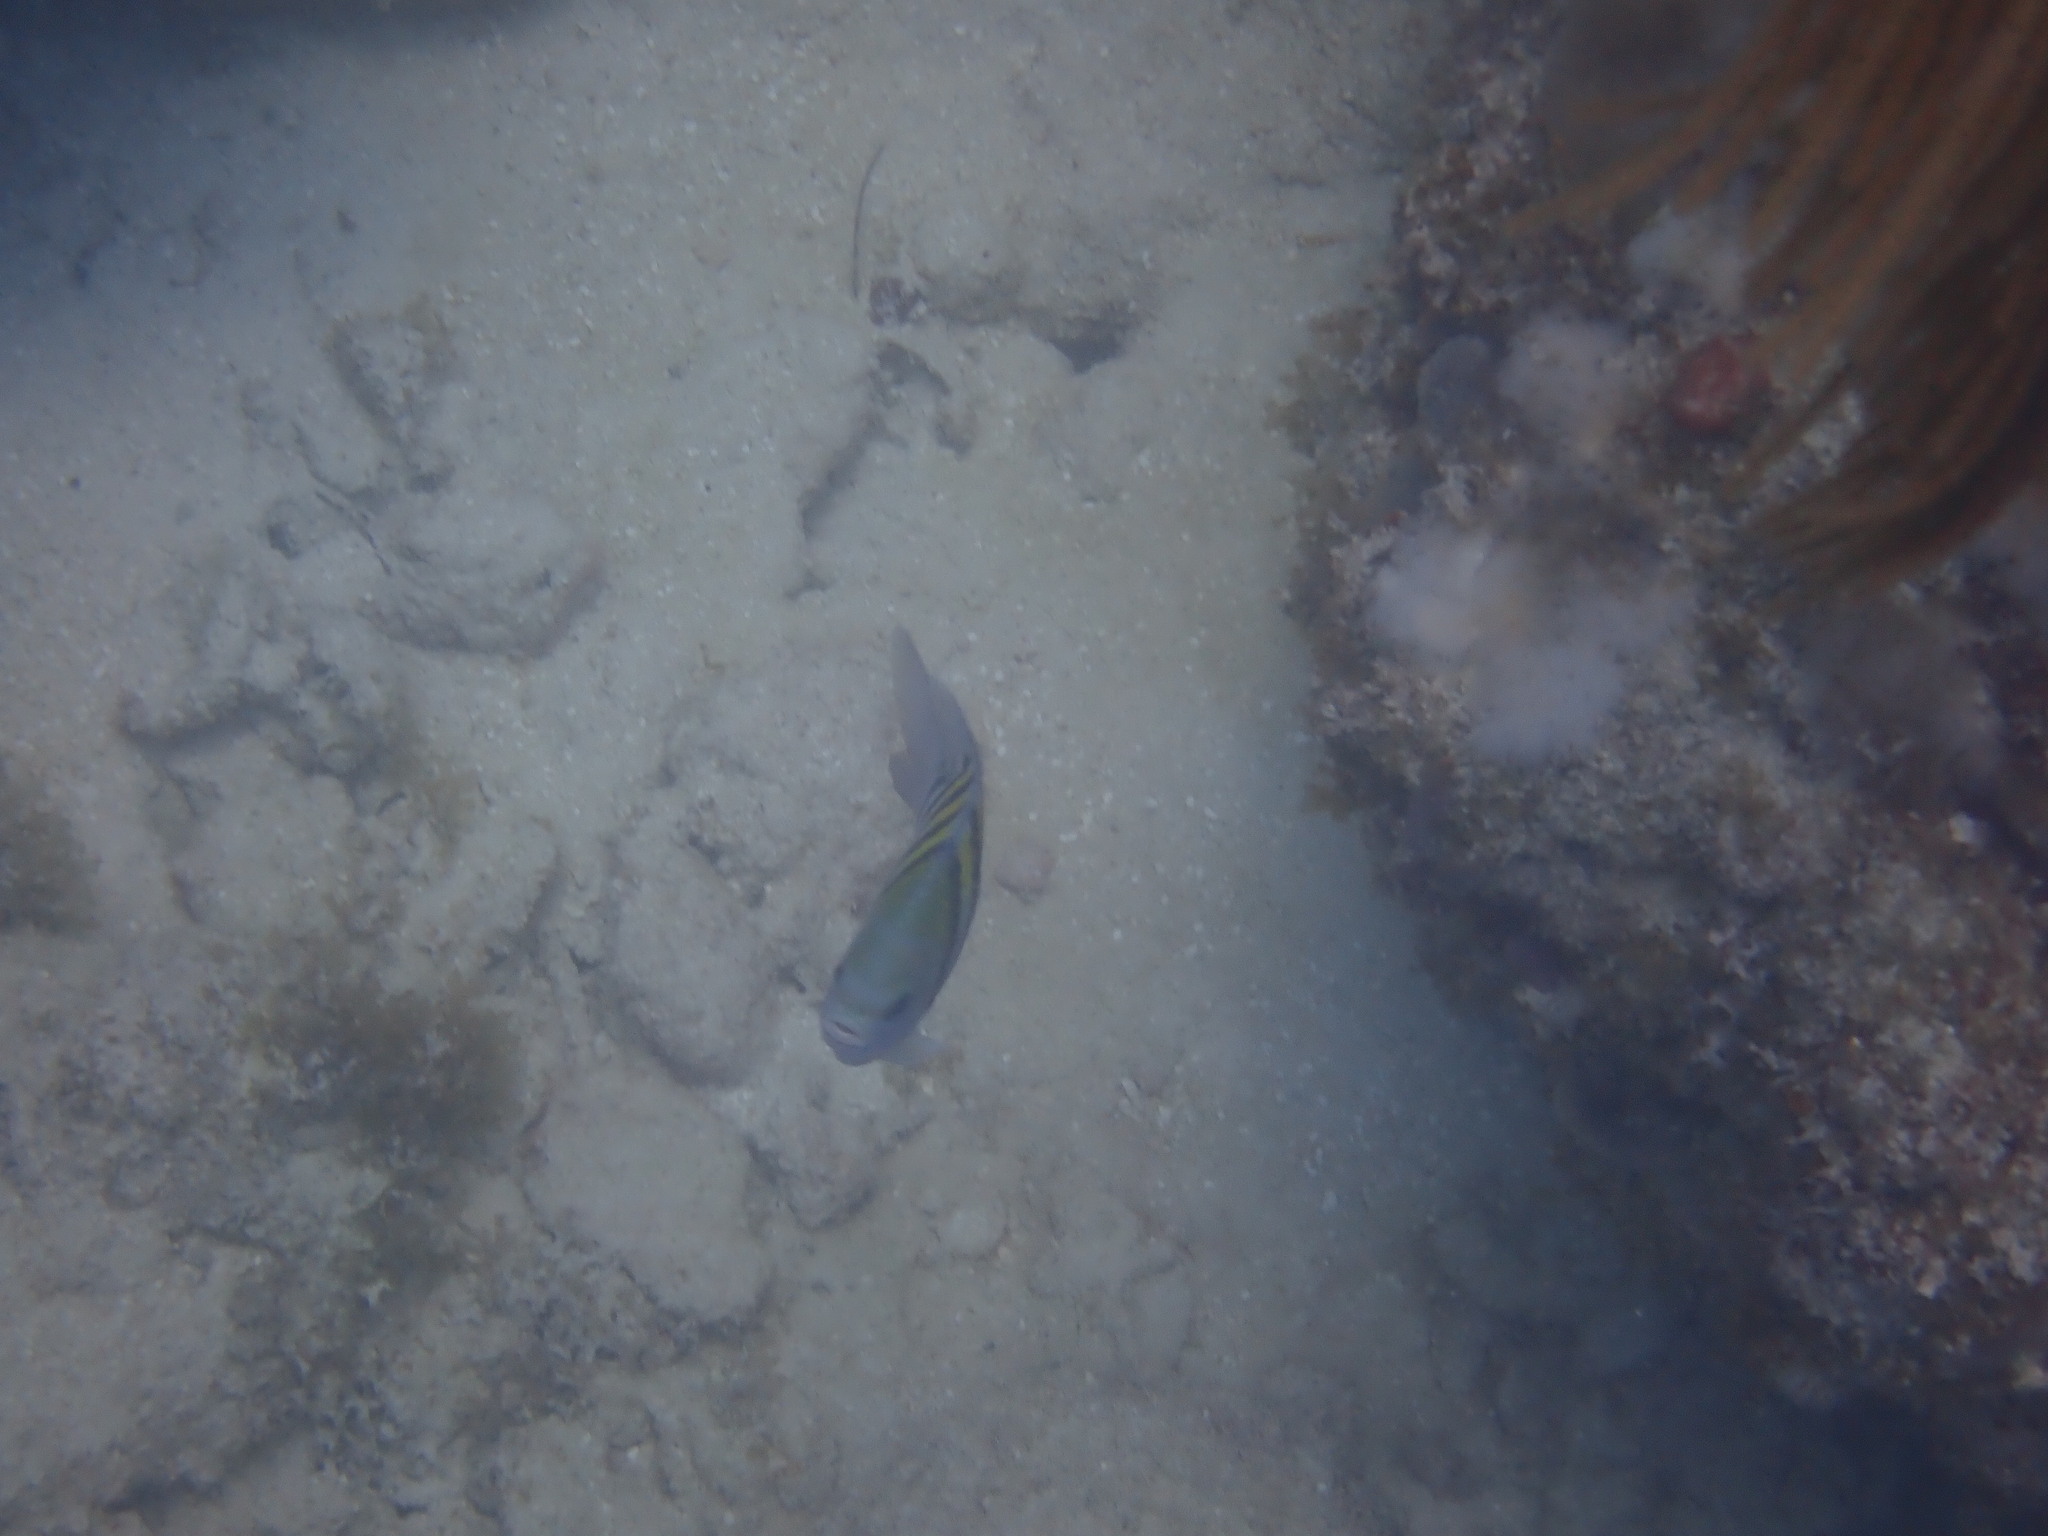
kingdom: Animalia
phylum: Chordata
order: Perciformes
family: Pomacentridae
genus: Abudefduf
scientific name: Abudefduf saxatilis
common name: Sergeant major
